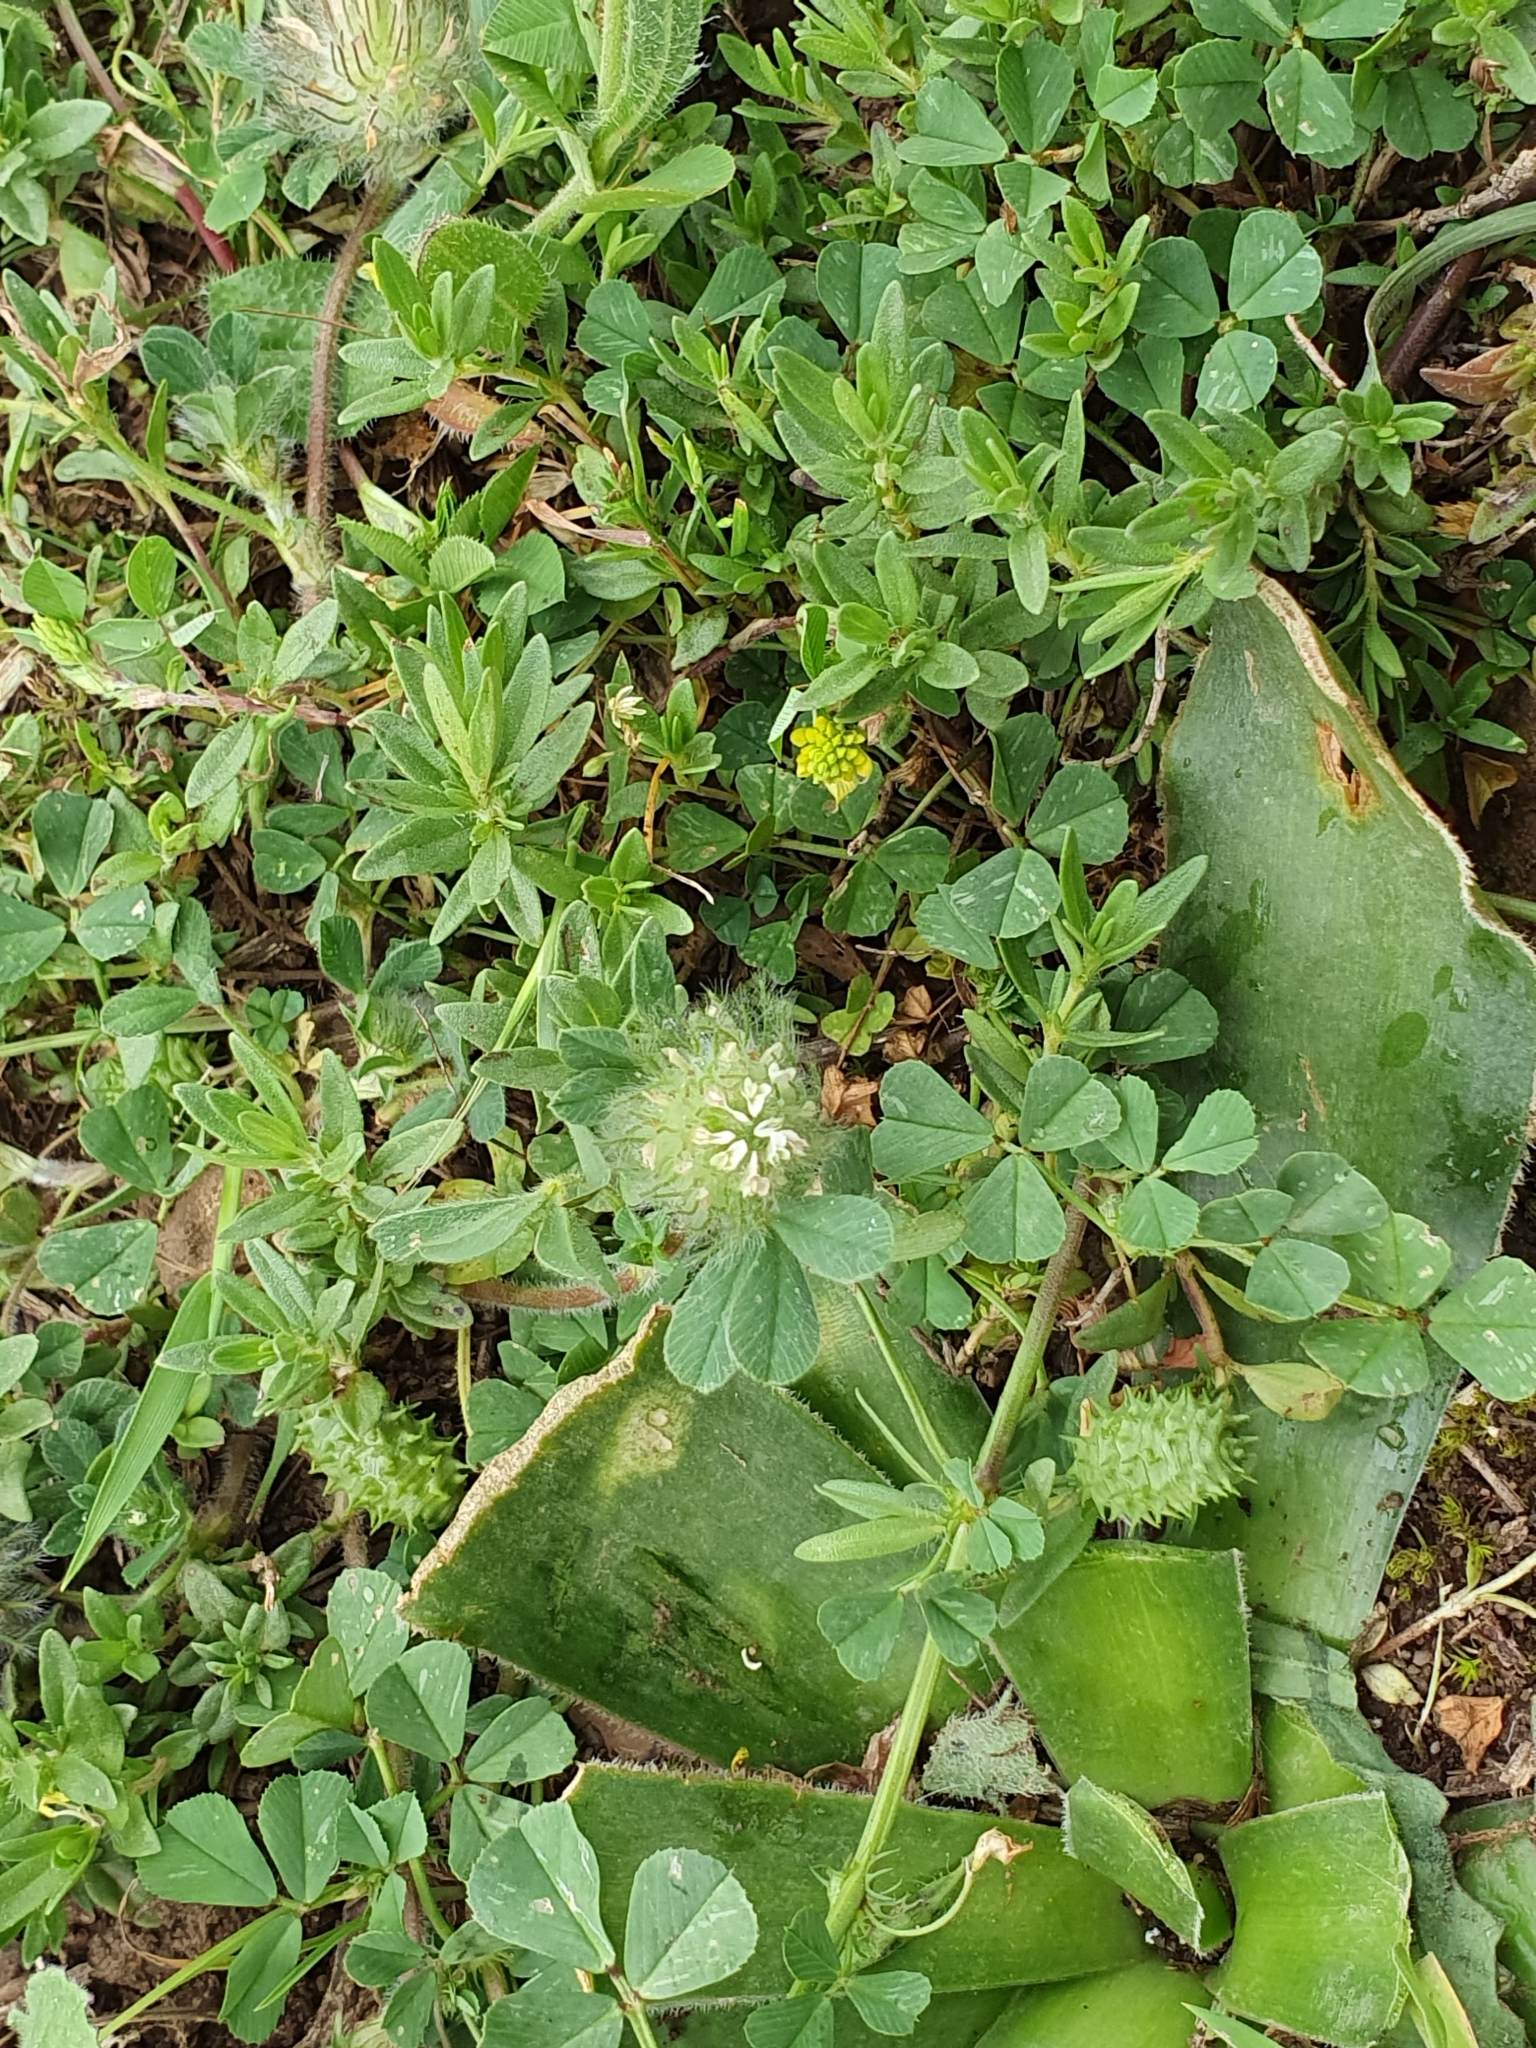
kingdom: Plantae
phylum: Tracheophyta
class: Magnoliopsida
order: Fabales
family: Fabaceae
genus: Medicago
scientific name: Medicago murex
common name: Murex
